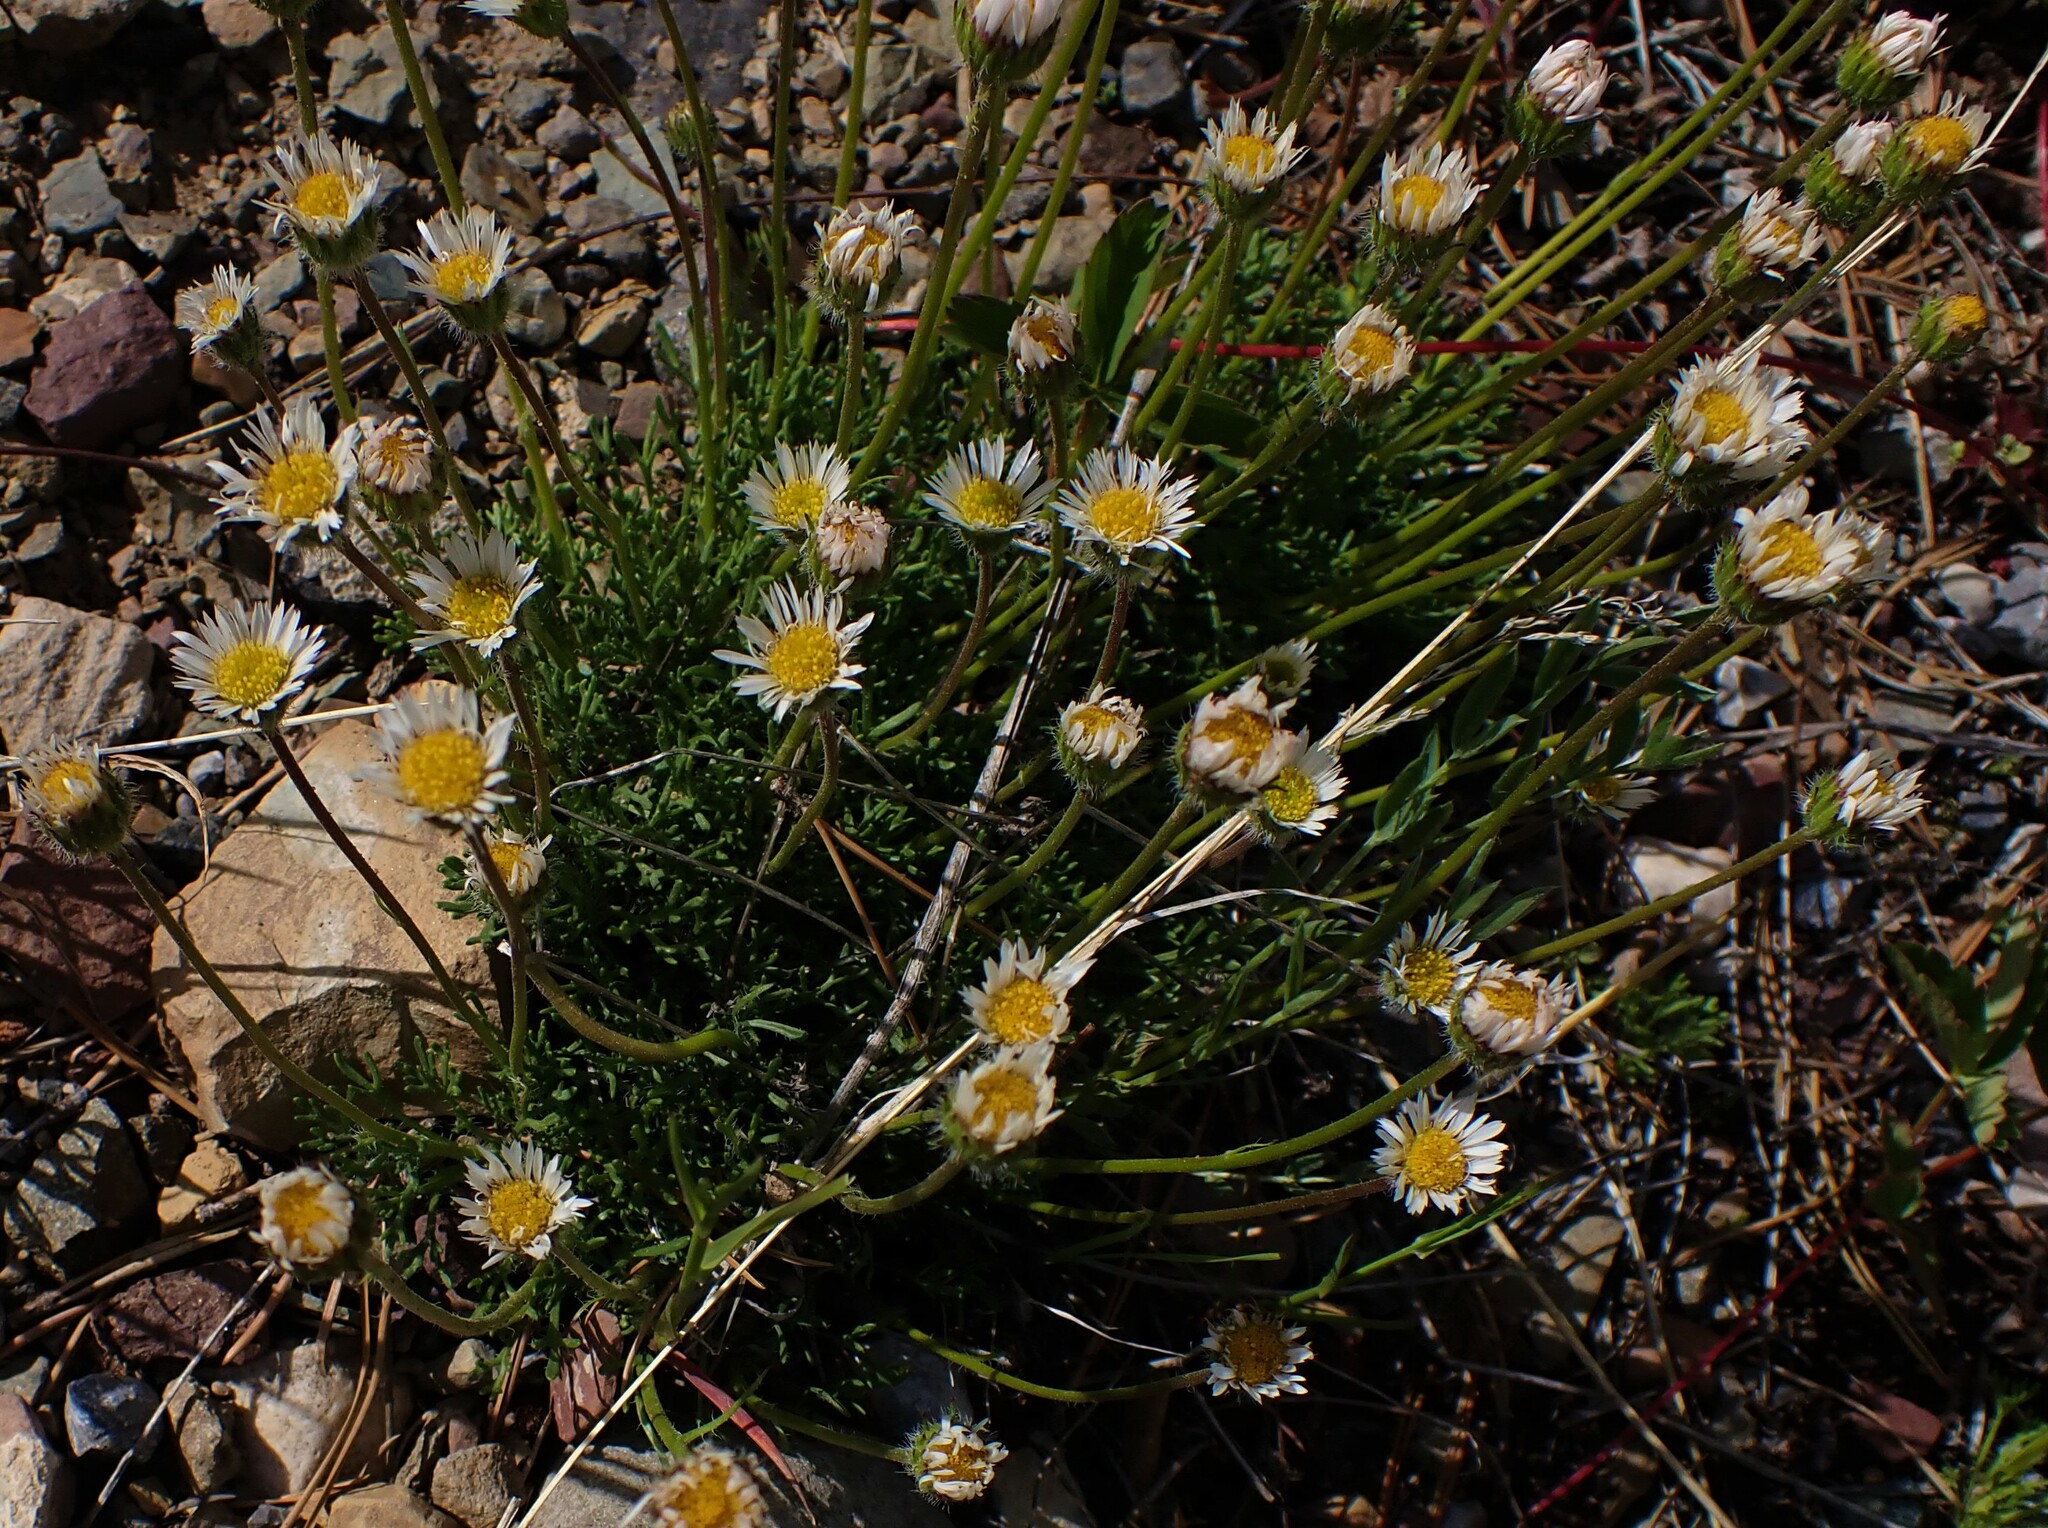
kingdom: Plantae
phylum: Tracheophyta
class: Magnoliopsida
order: Asterales
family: Asteraceae
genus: Erigeron
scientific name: Erigeron compositus
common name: Dwarf mountain fleabane
